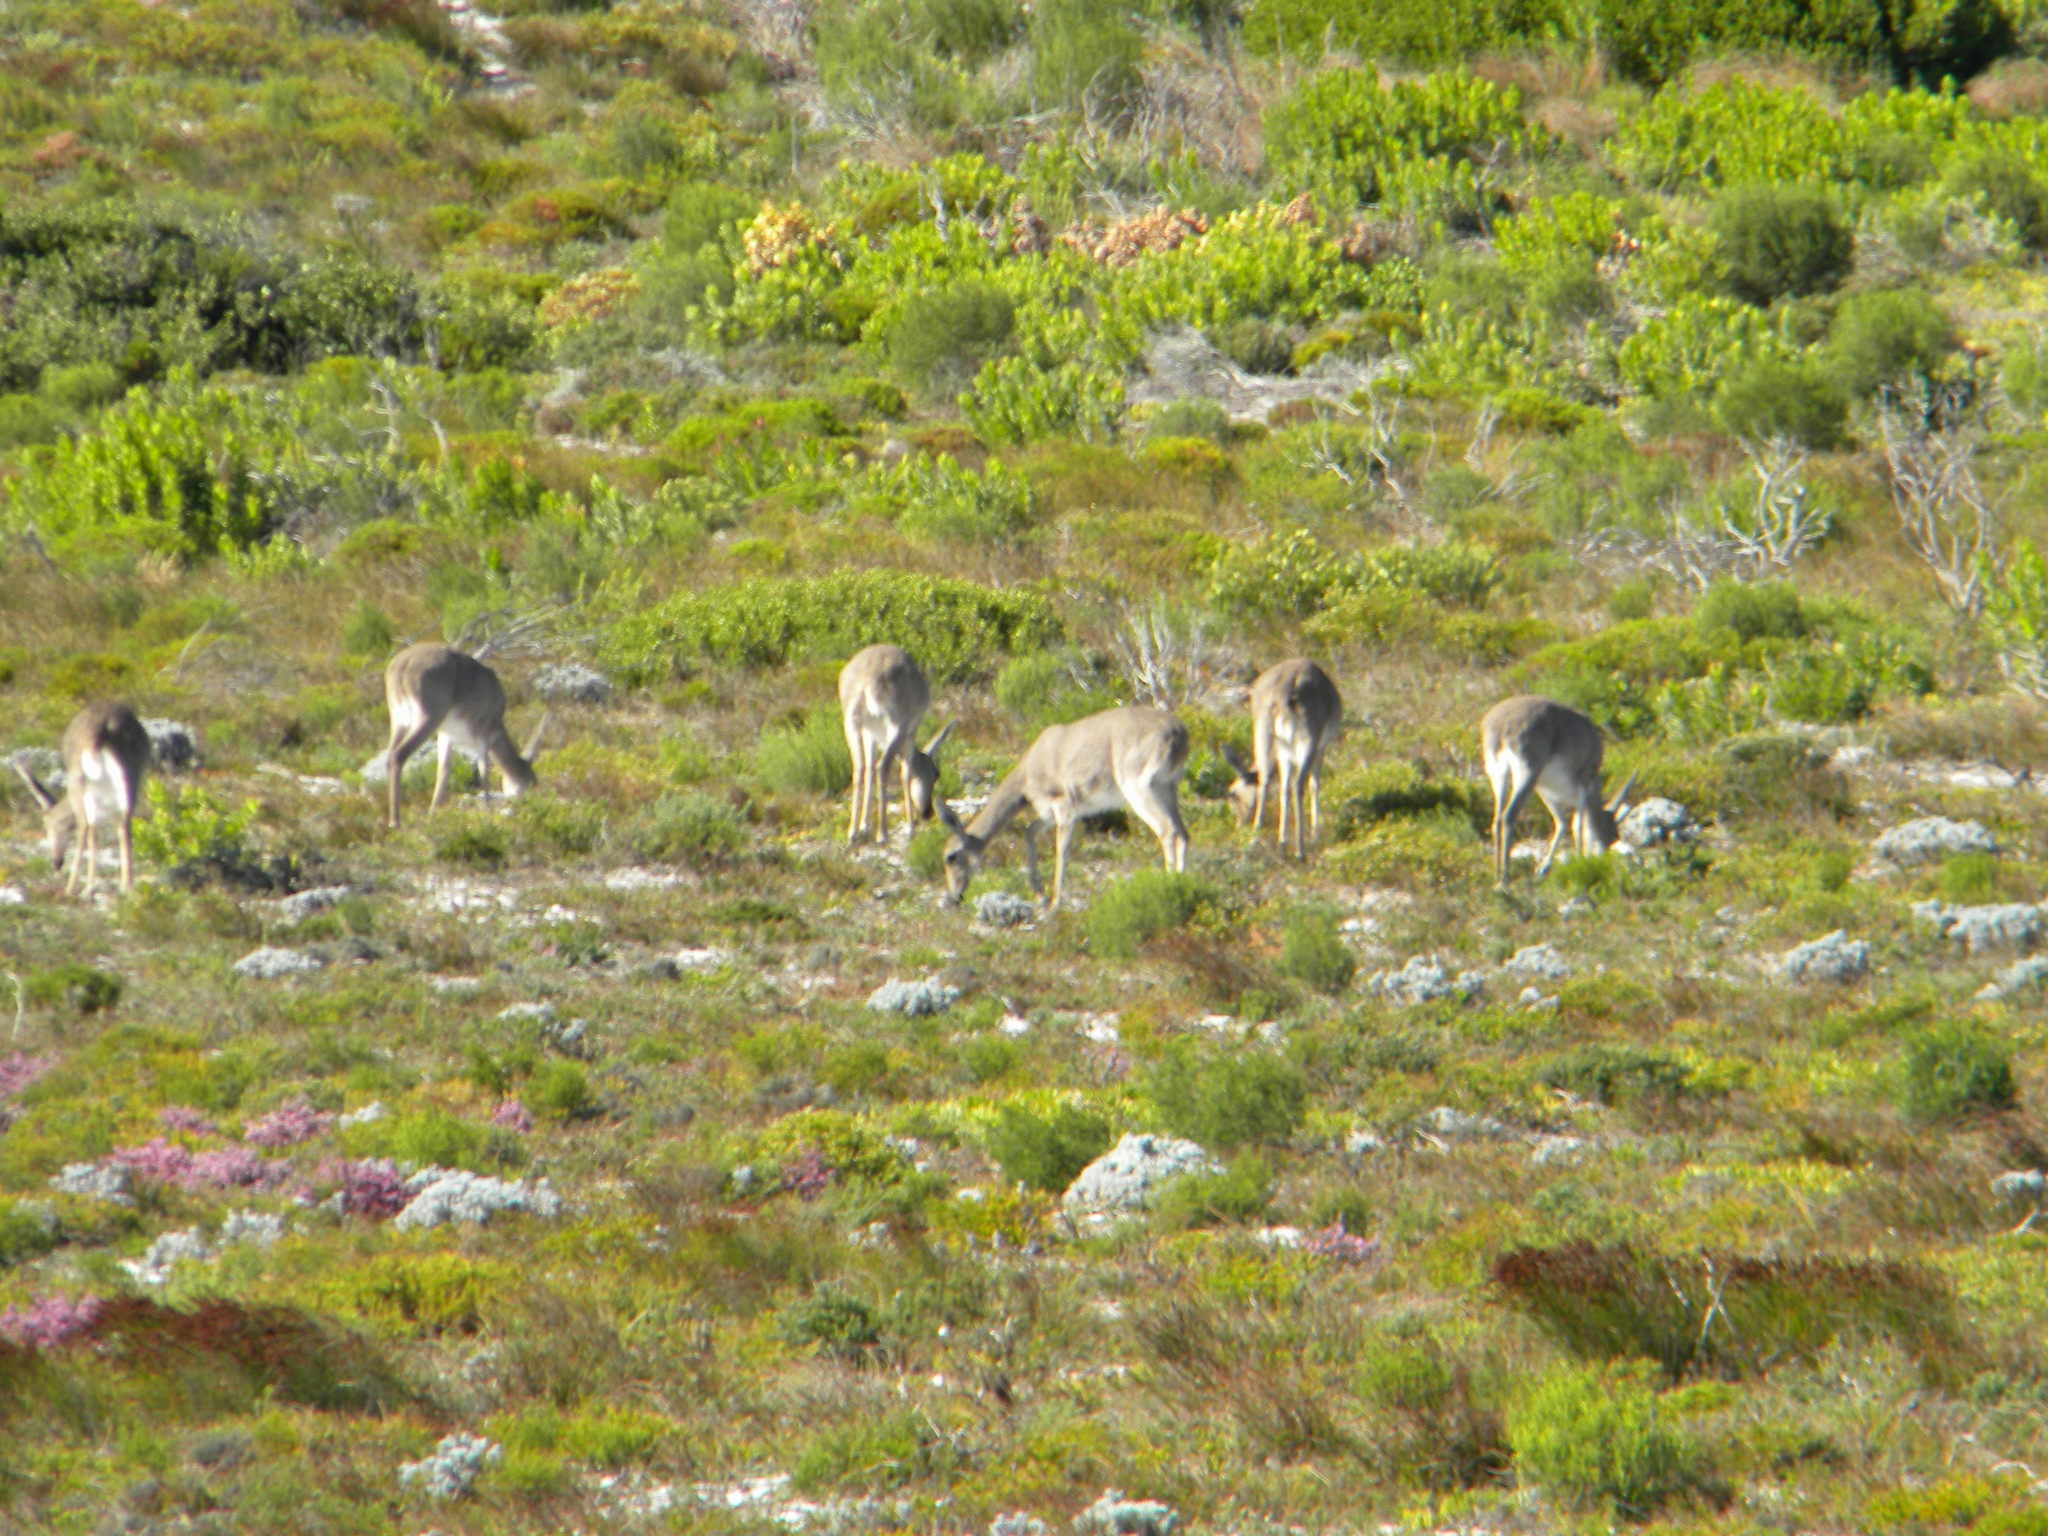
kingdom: Animalia
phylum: Chordata
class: Mammalia
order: Artiodactyla
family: Bovidae
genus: Pelea
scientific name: Pelea capreolus
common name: Common rhebok
